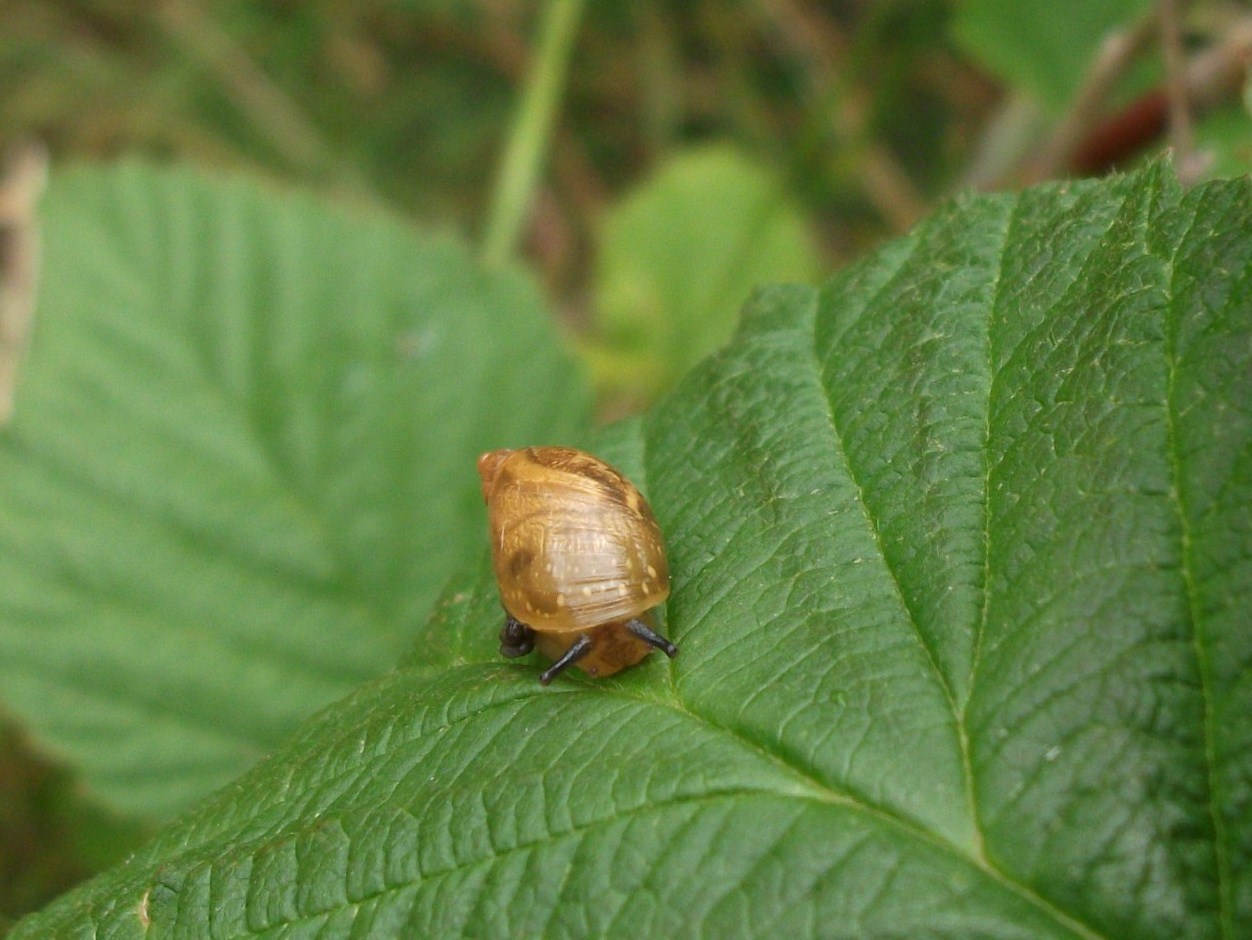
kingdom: Animalia
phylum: Mollusca
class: Gastropoda
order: Stylommatophora
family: Succineidae
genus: Succinea
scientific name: Succinea putris
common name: European ambersnail
